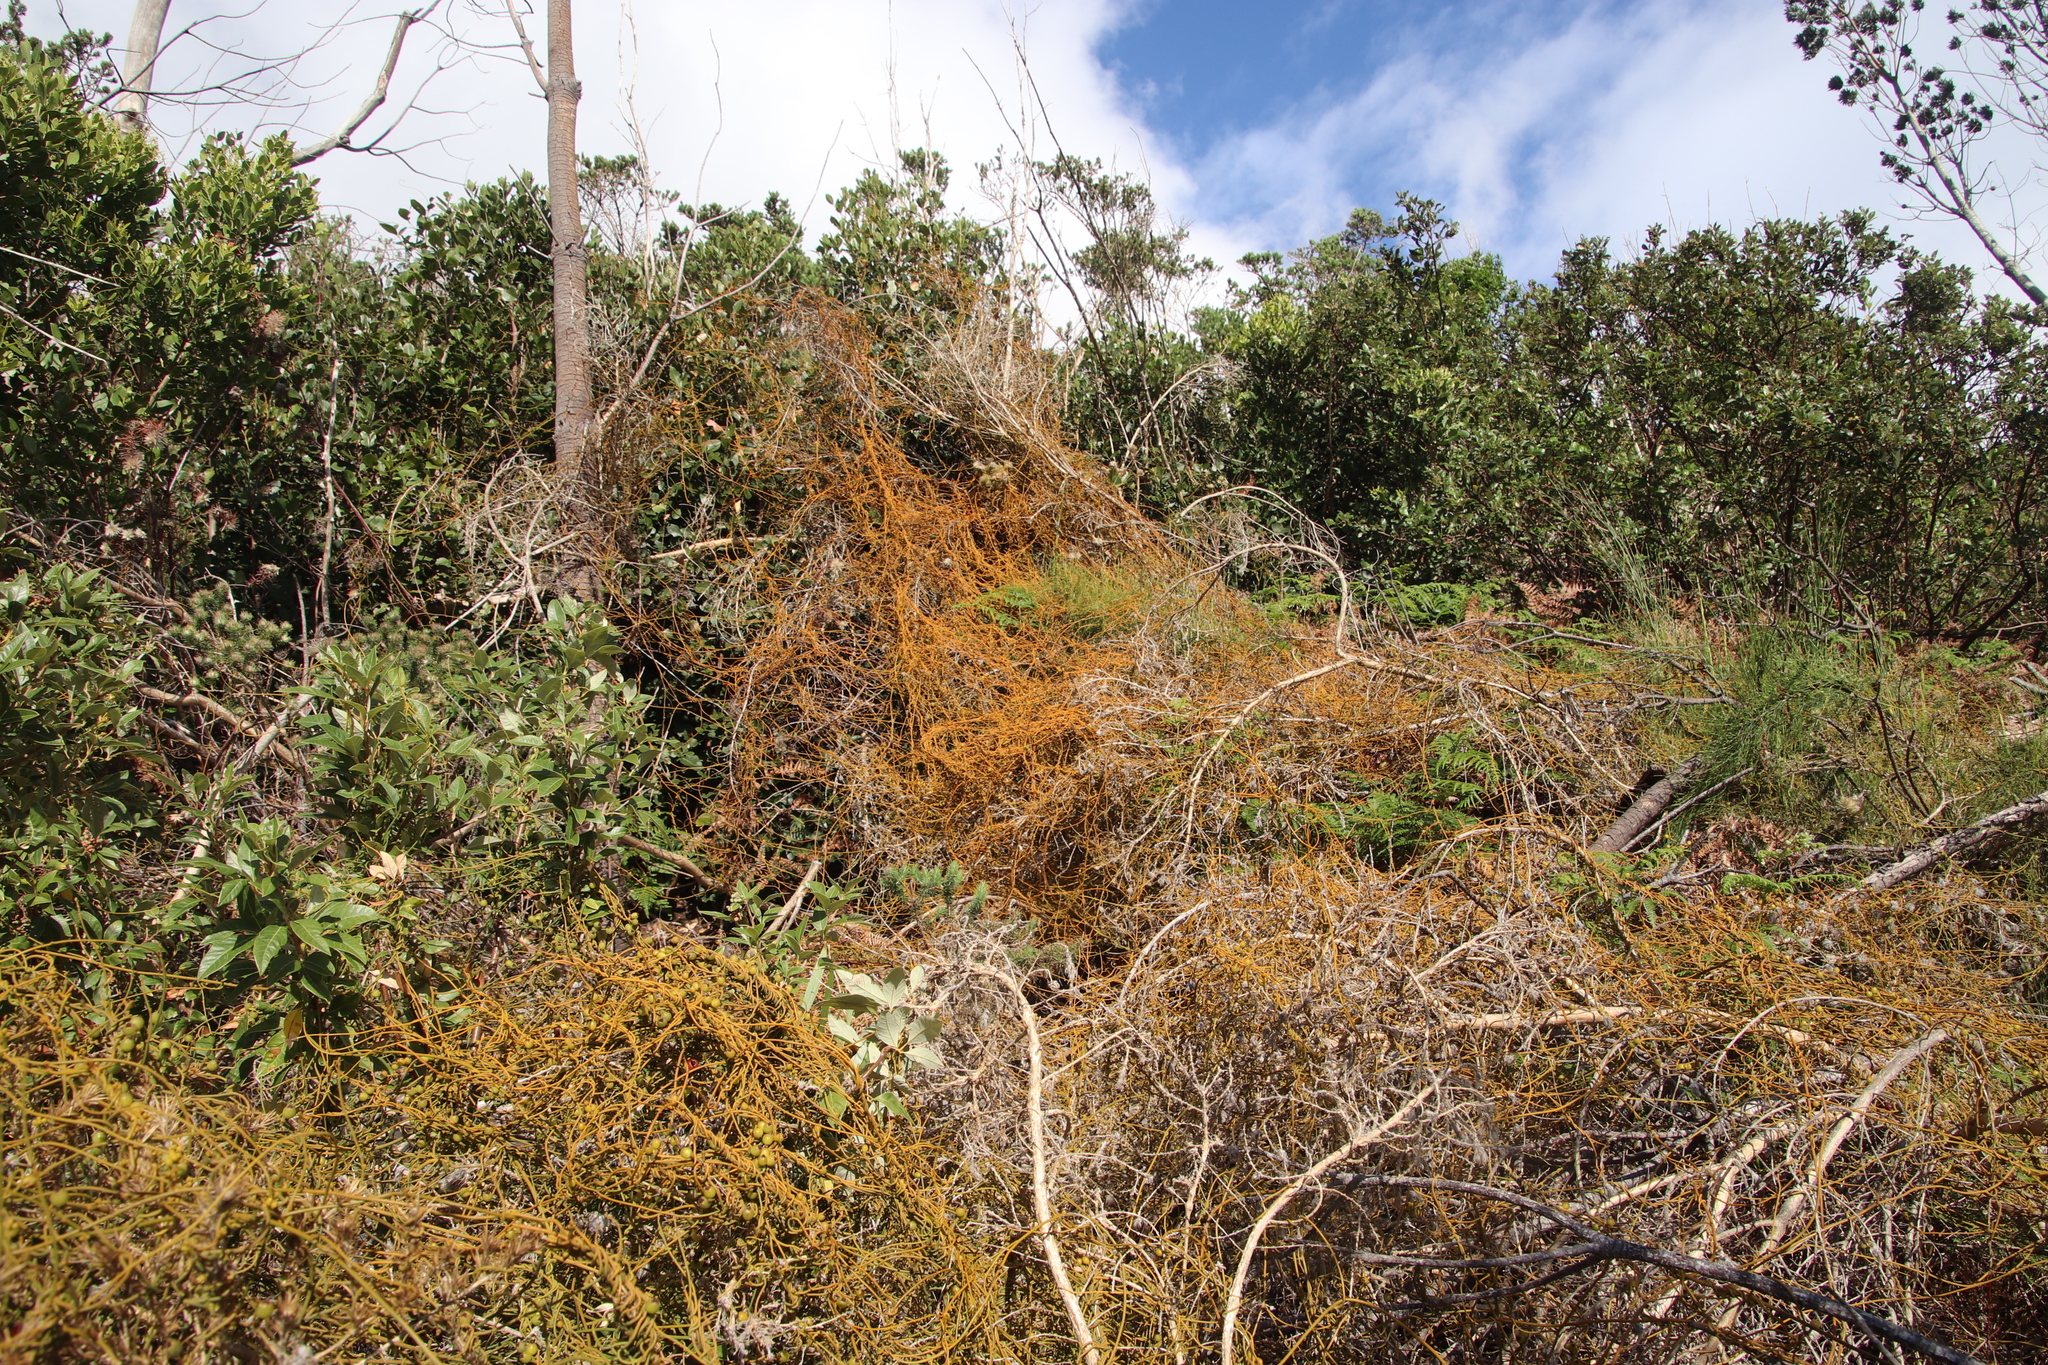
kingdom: Plantae
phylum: Tracheophyta
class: Magnoliopsida
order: Laurales
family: Lauraceae
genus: Cassytha
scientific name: Cassytha ciliolata
